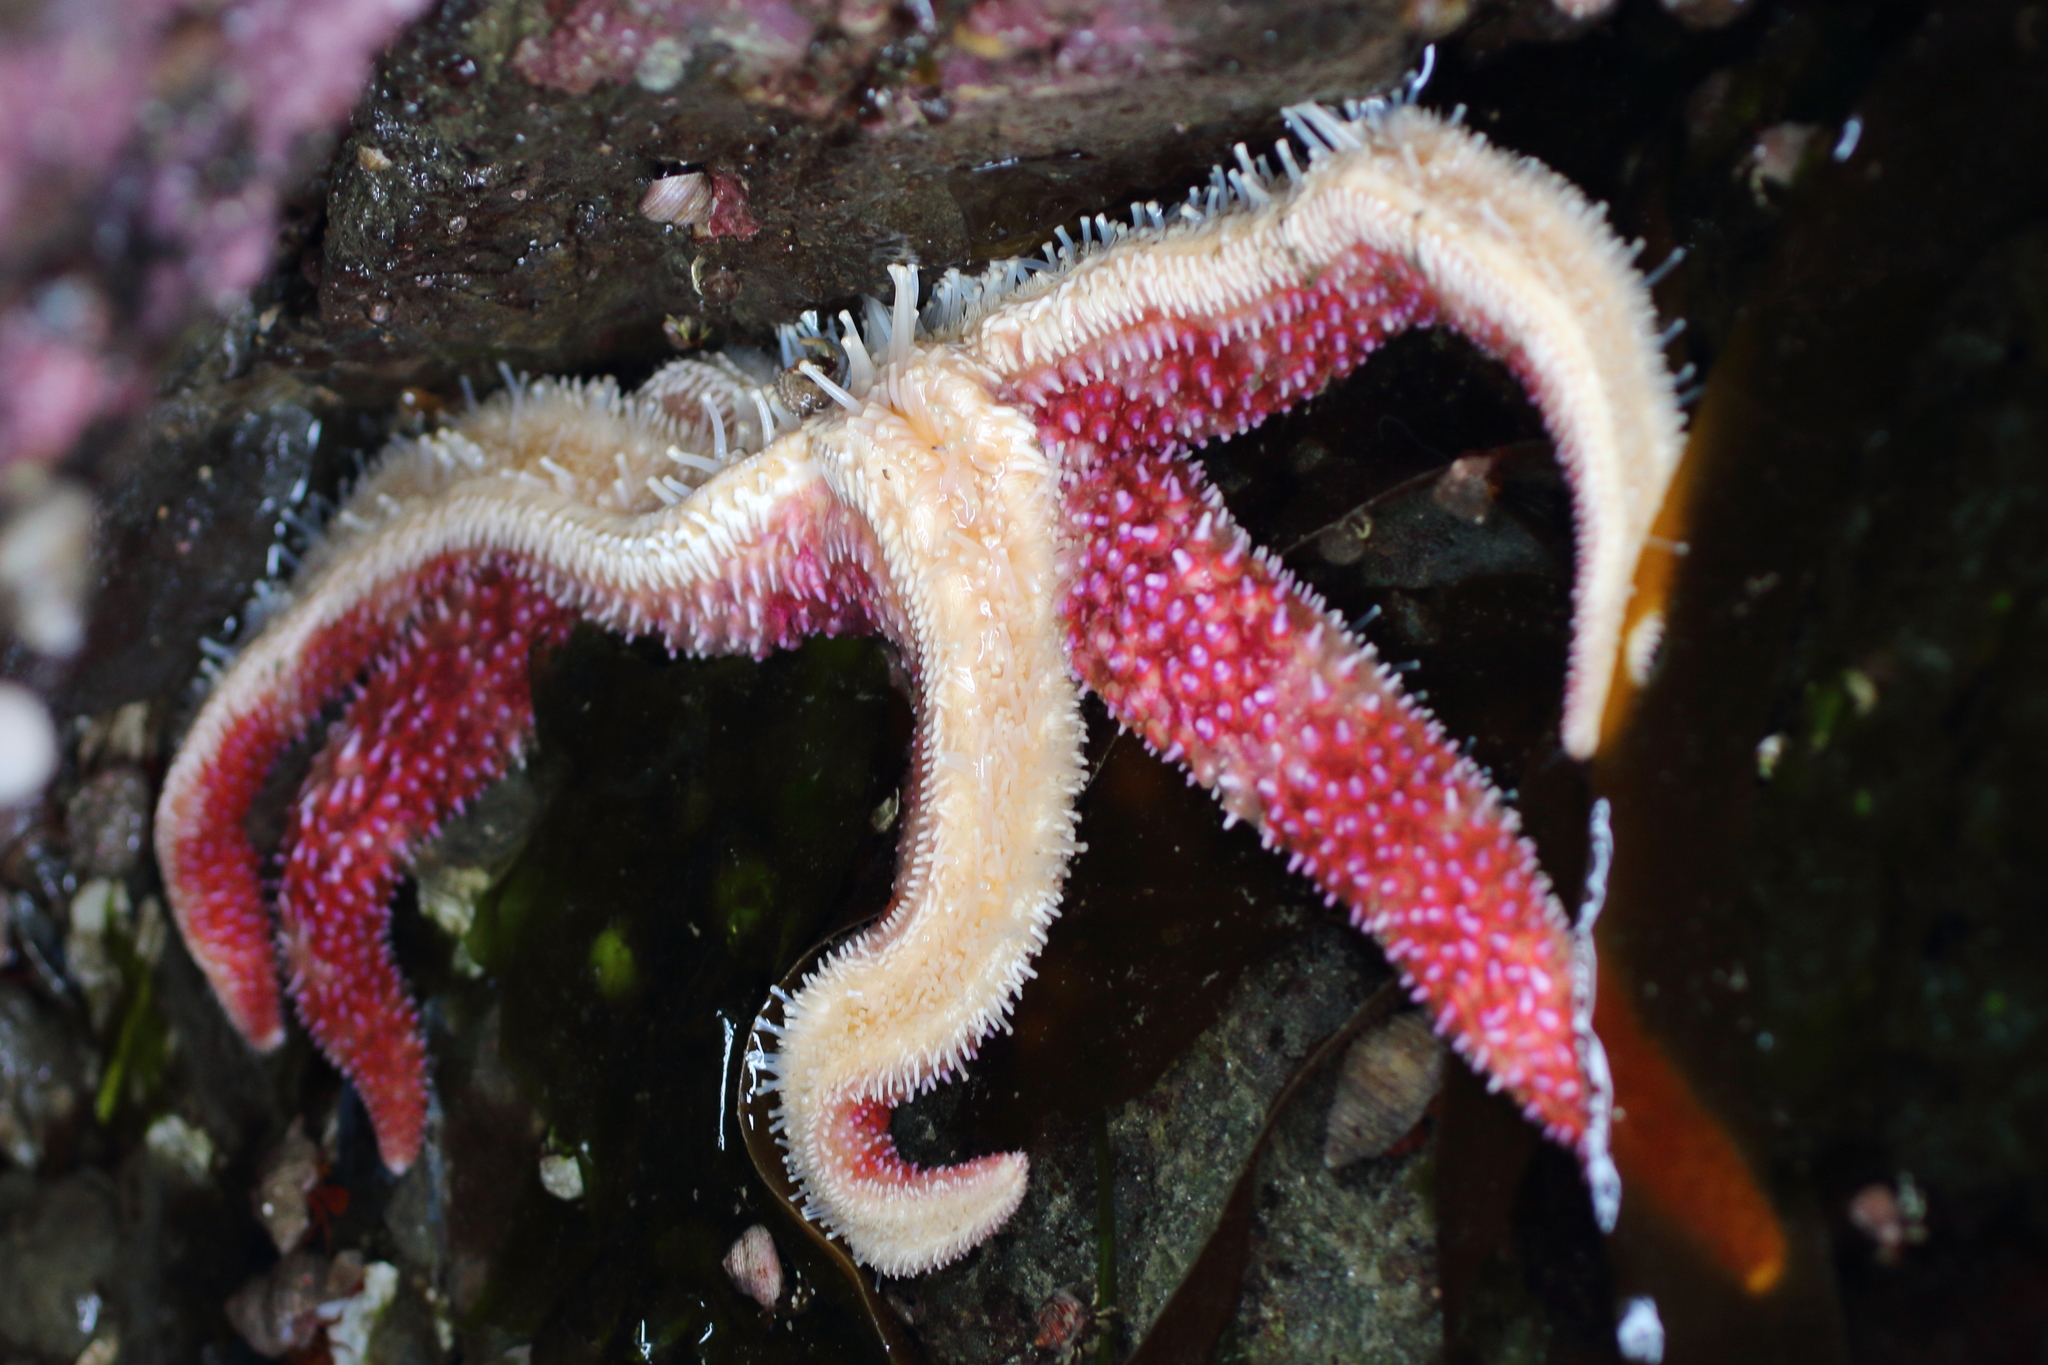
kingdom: Animalia
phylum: Echinodermata
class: Asteroidea
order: Forcipulatida
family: Asteriidae
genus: Orthasterias
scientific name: Orthasterias koehleri
